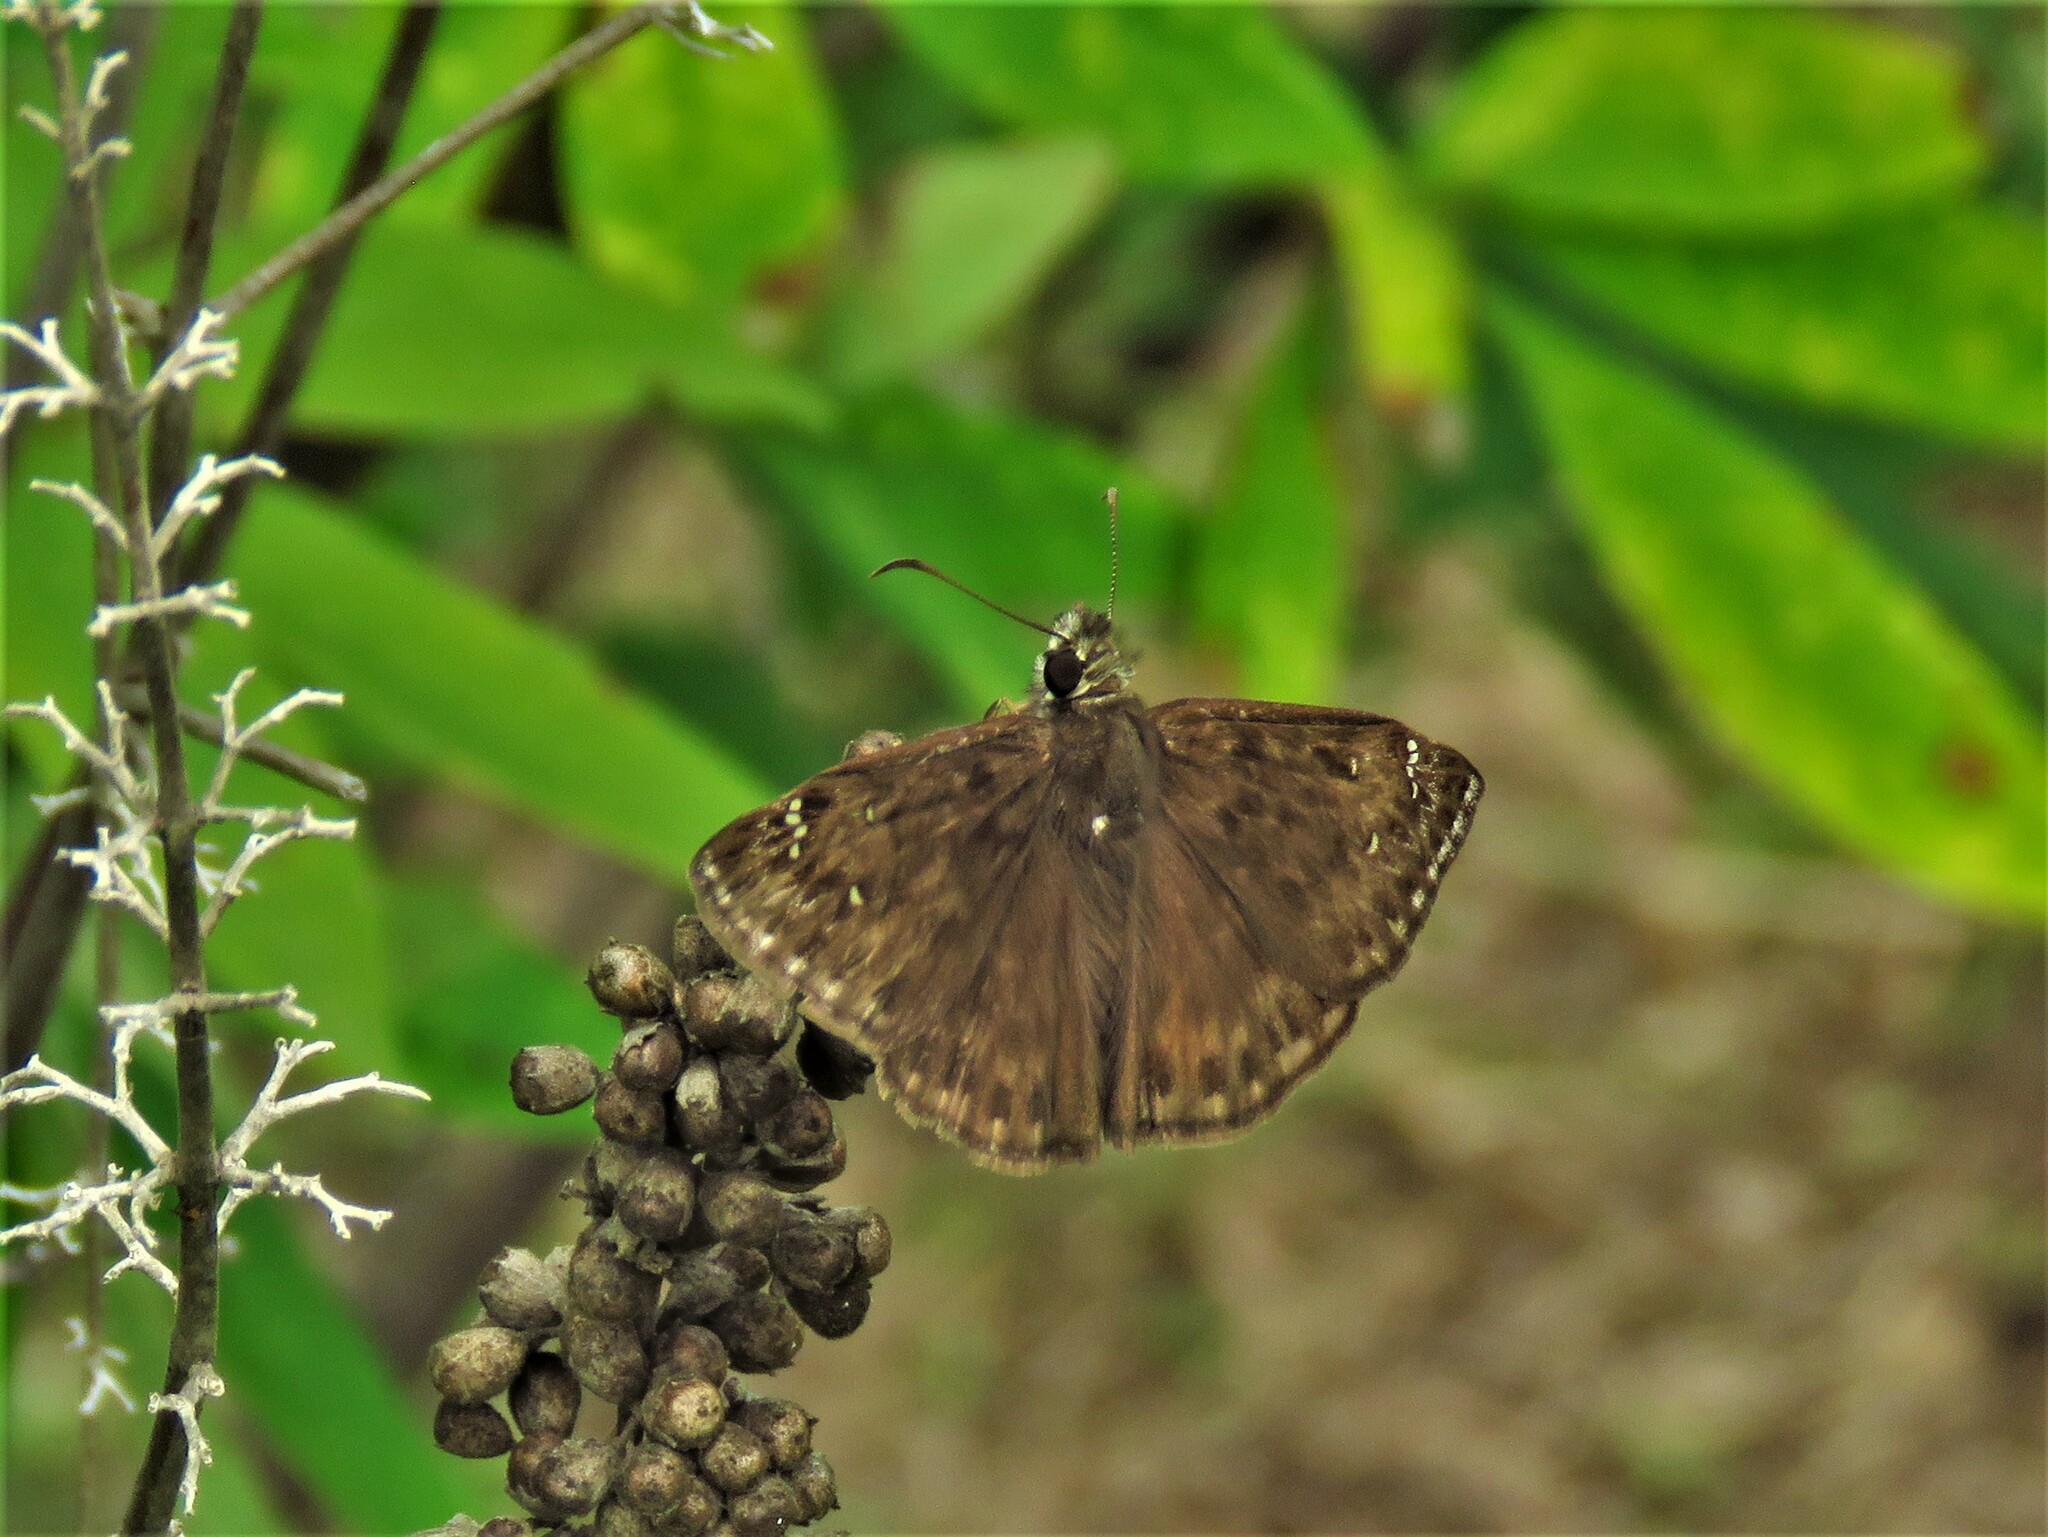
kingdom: Animalia
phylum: Arthropoda
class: Insecta
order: Lepidoptera
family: Hesperiidae
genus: Erynnis
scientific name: Erynnis horatius
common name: Horace's duskywing
